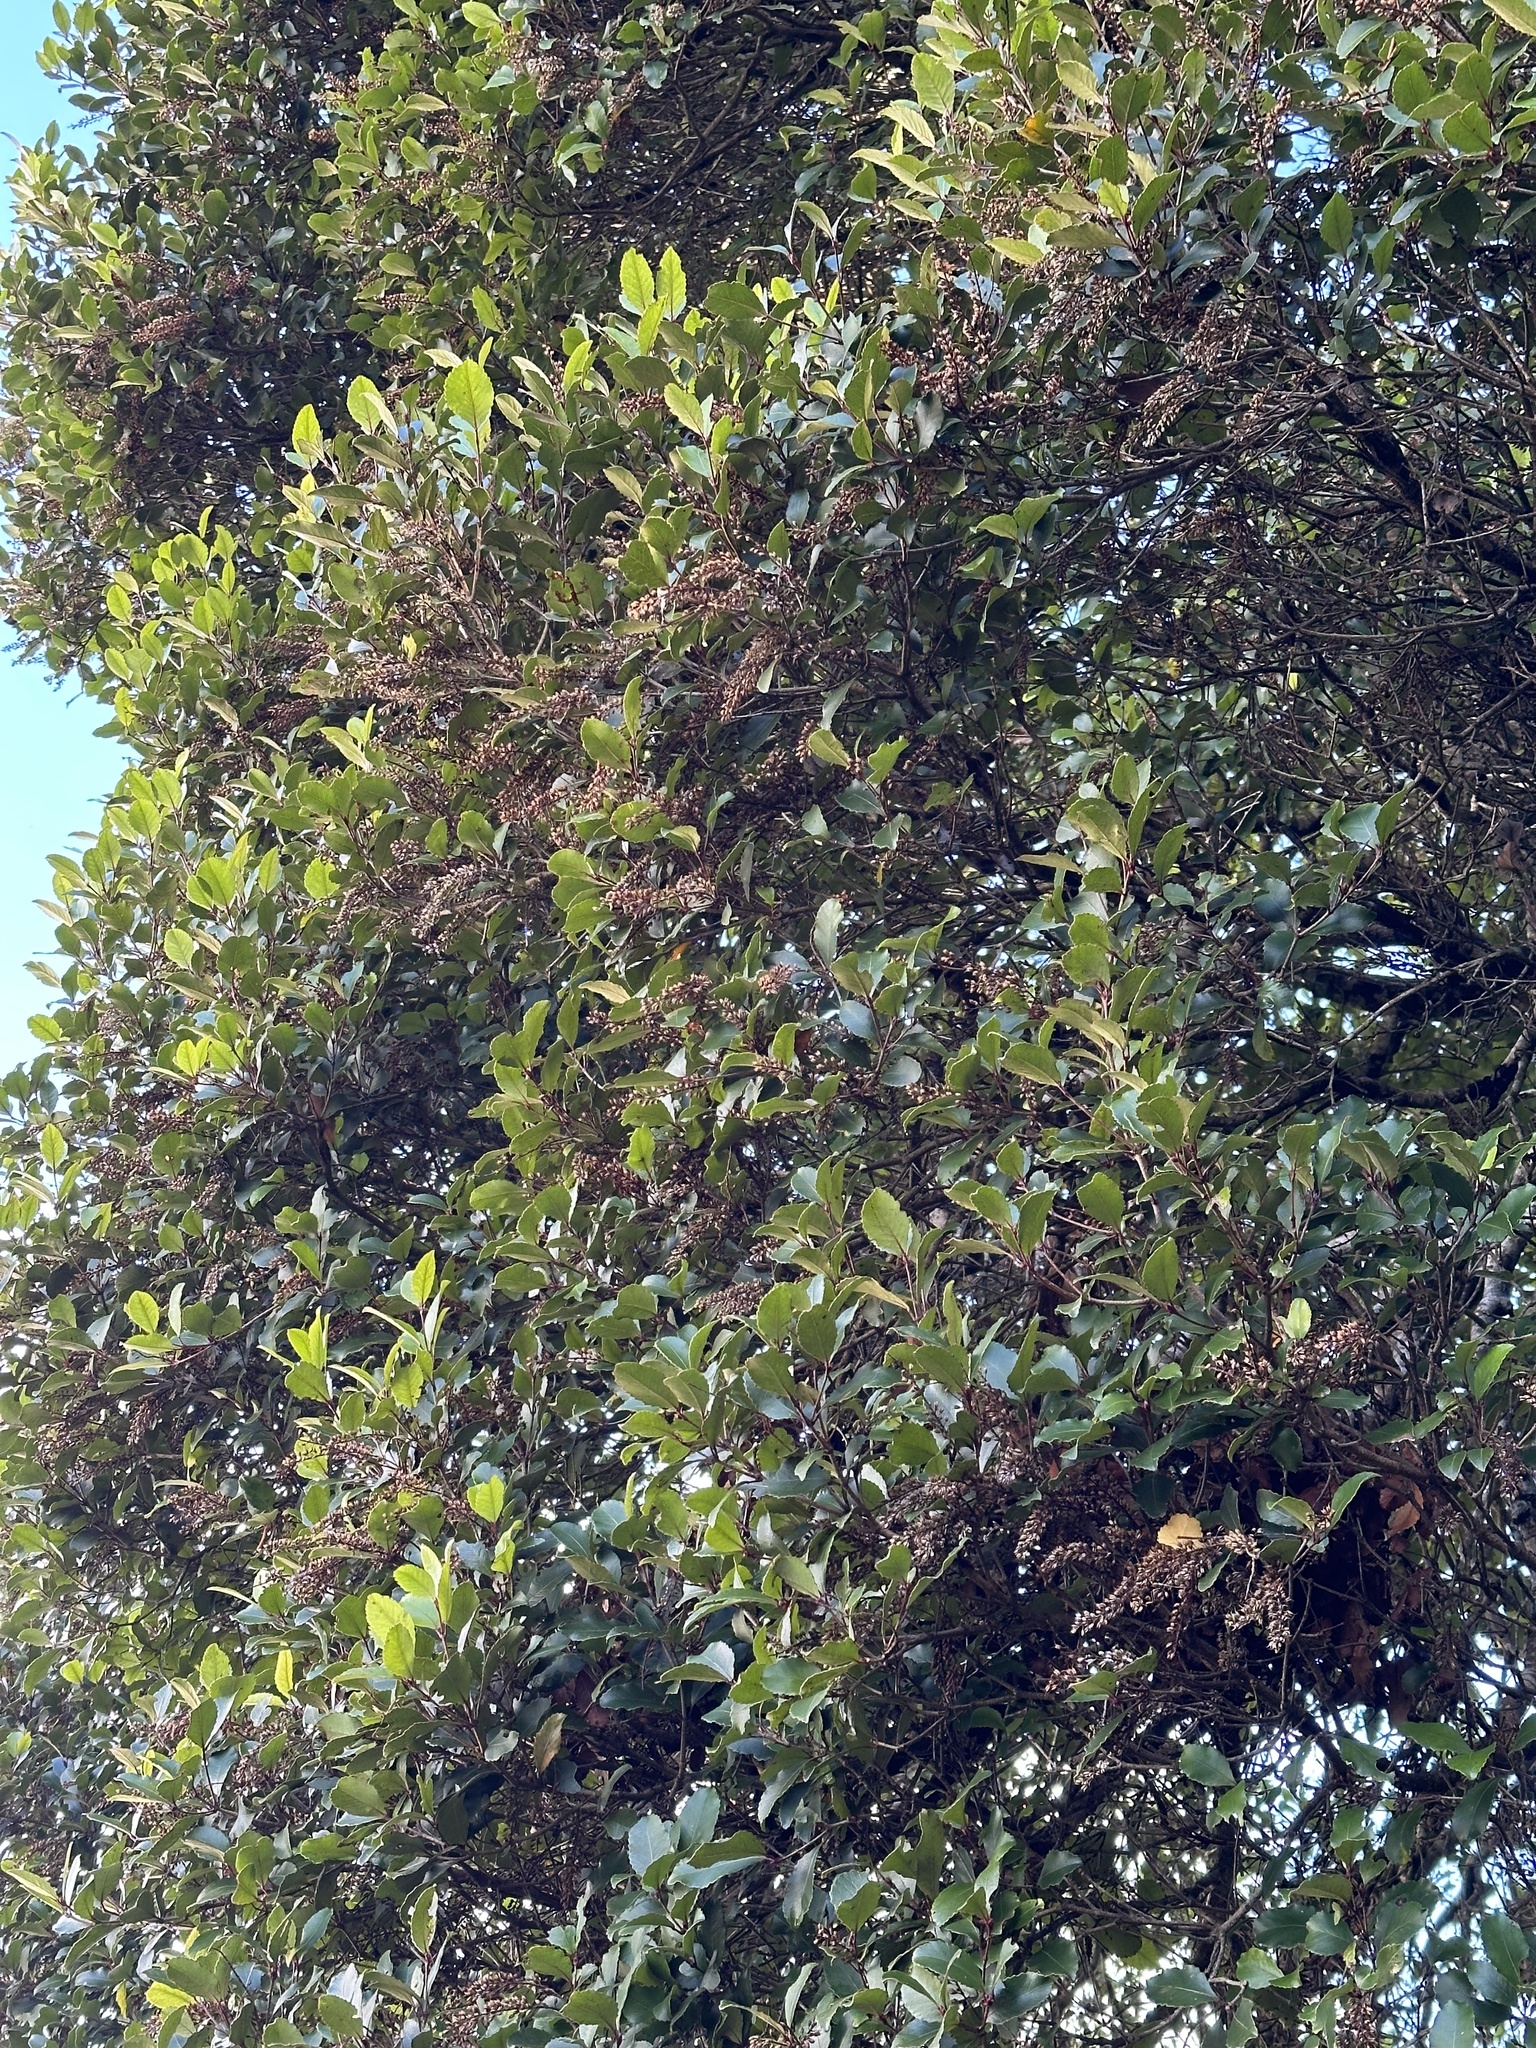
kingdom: Plantae
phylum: Tracheophyta
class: Magnoliopsida
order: Oxalidales
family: Cunoniaceae
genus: Pterophylla
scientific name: Pterophylla racemosa
